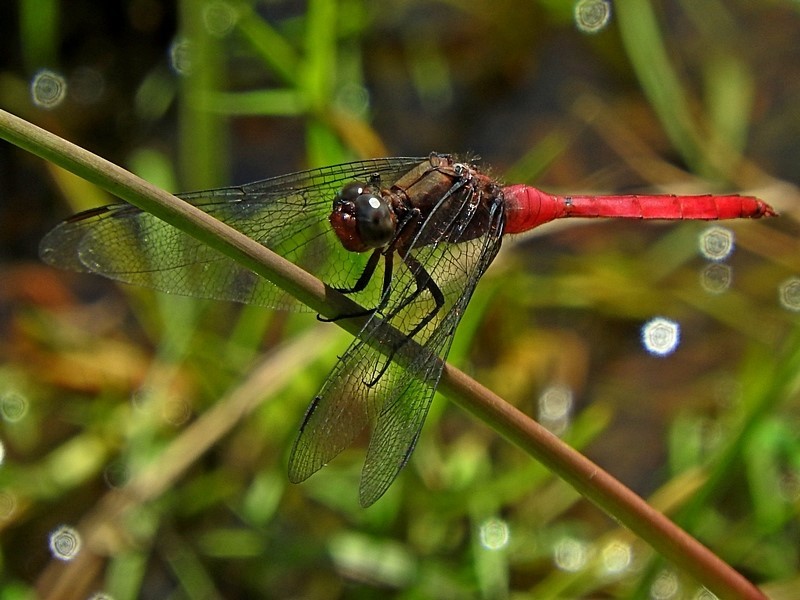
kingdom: Animalia
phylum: Arthropoda
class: Insecta
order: Odonata
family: Libellulidae
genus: Orthetrum
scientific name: Orthetrum villosovittatum
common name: Firery skimmer
